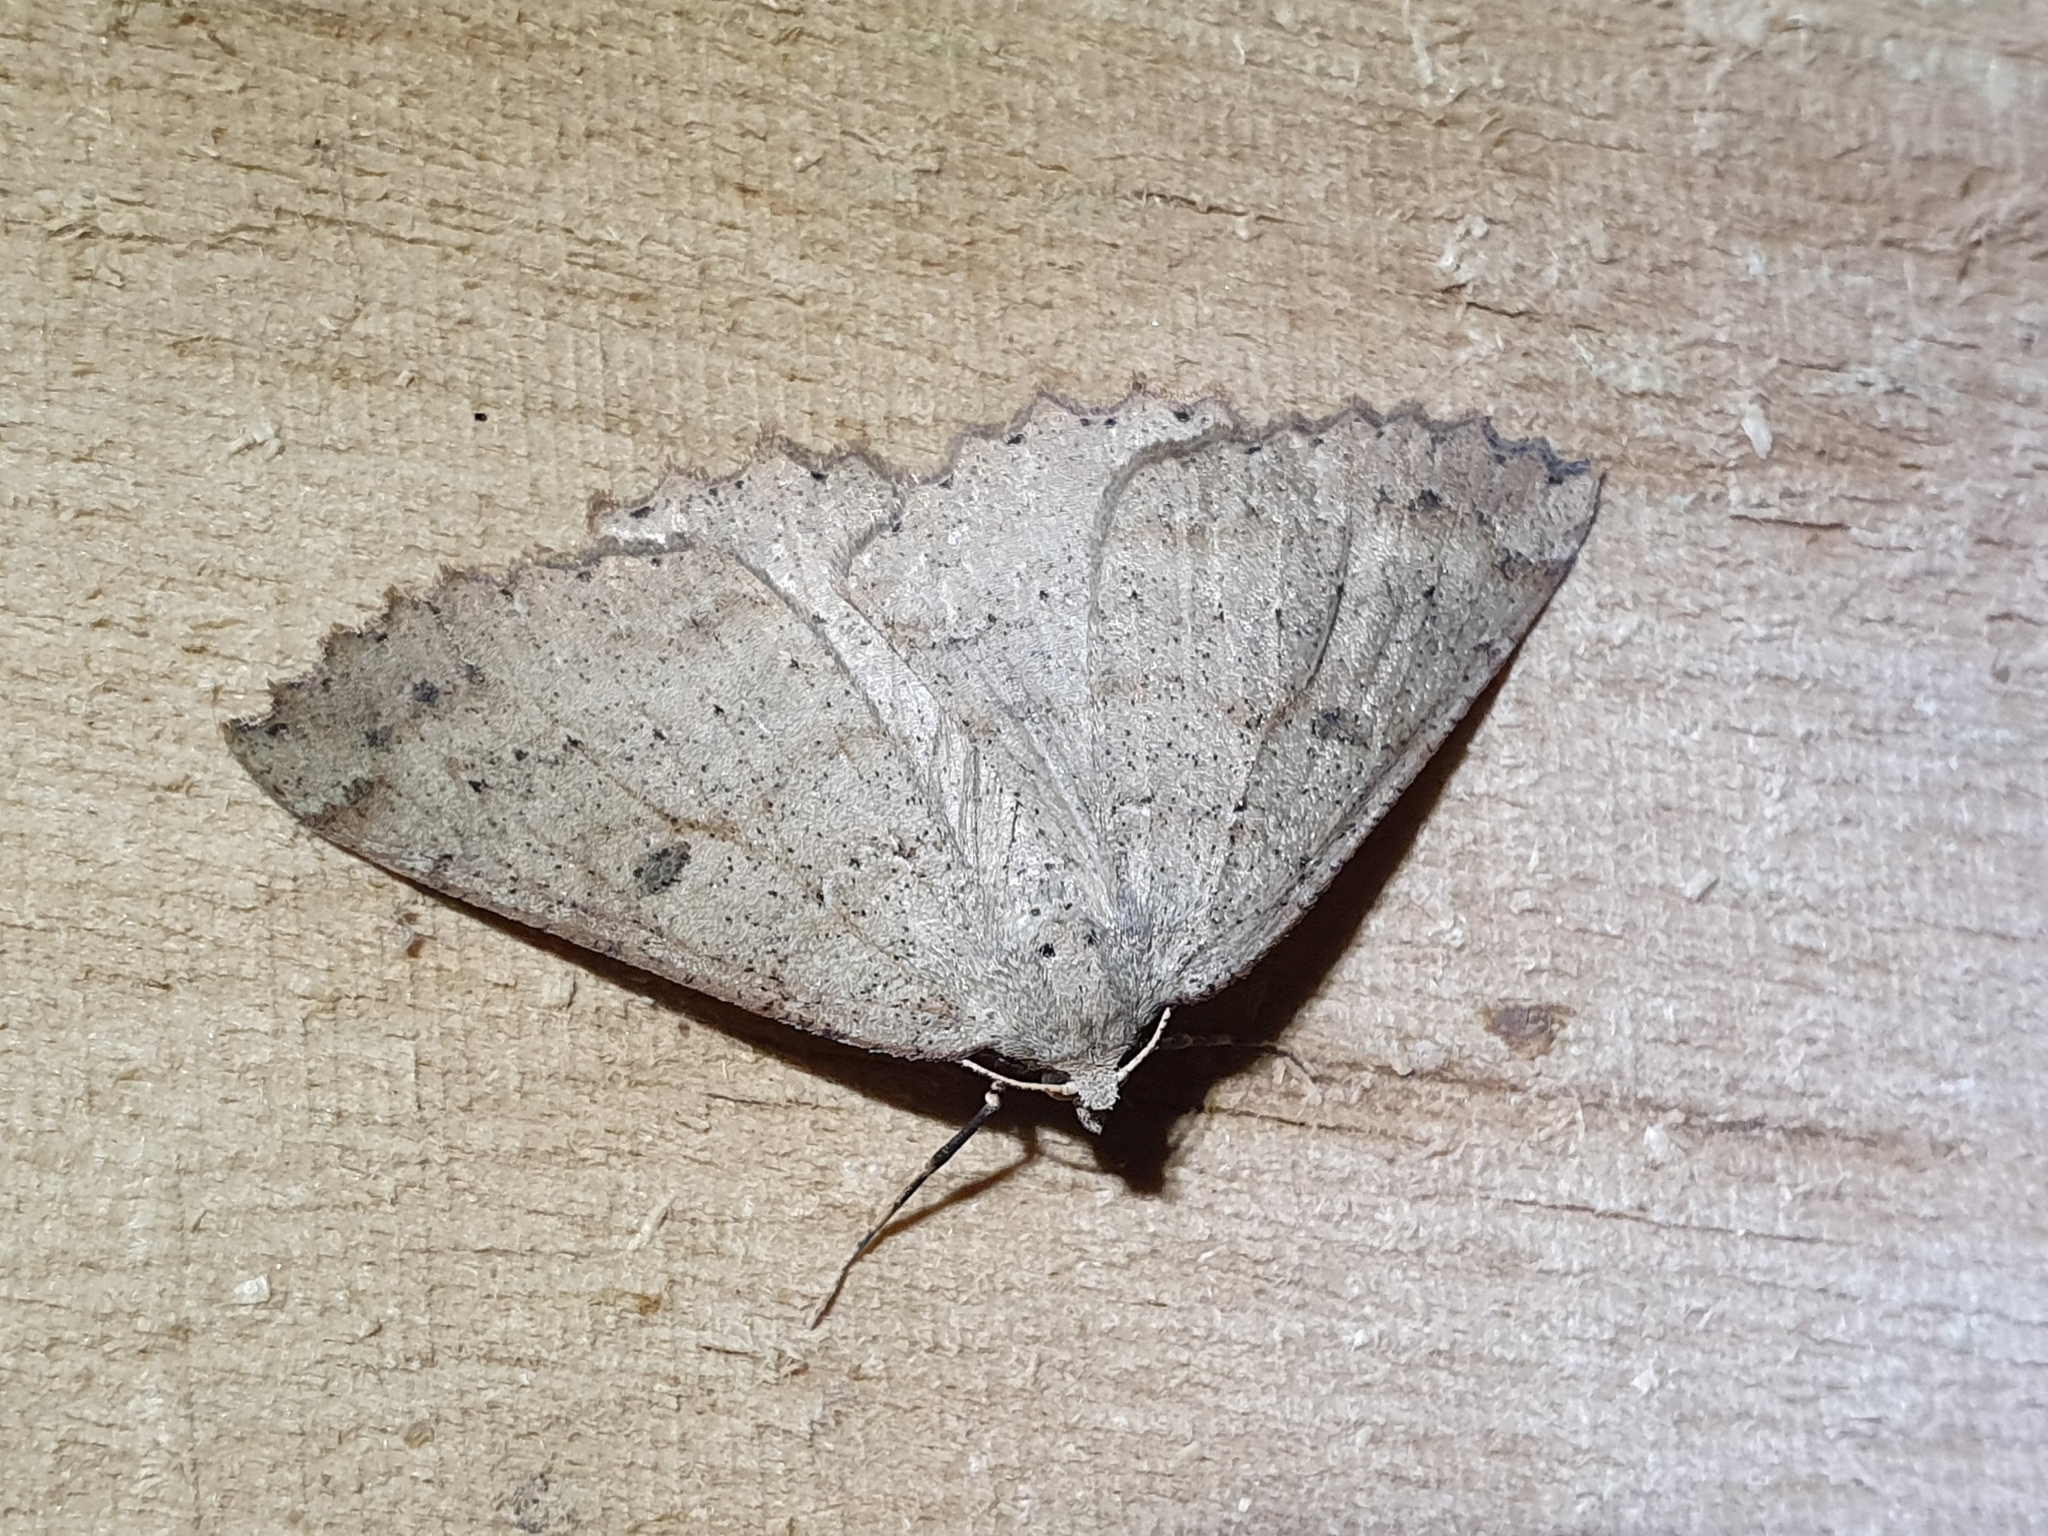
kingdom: Animalia
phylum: Arthropoda
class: Insecta
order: Lepidoptera
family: Geometridae
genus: Cleora
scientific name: Cleora scriptaria
